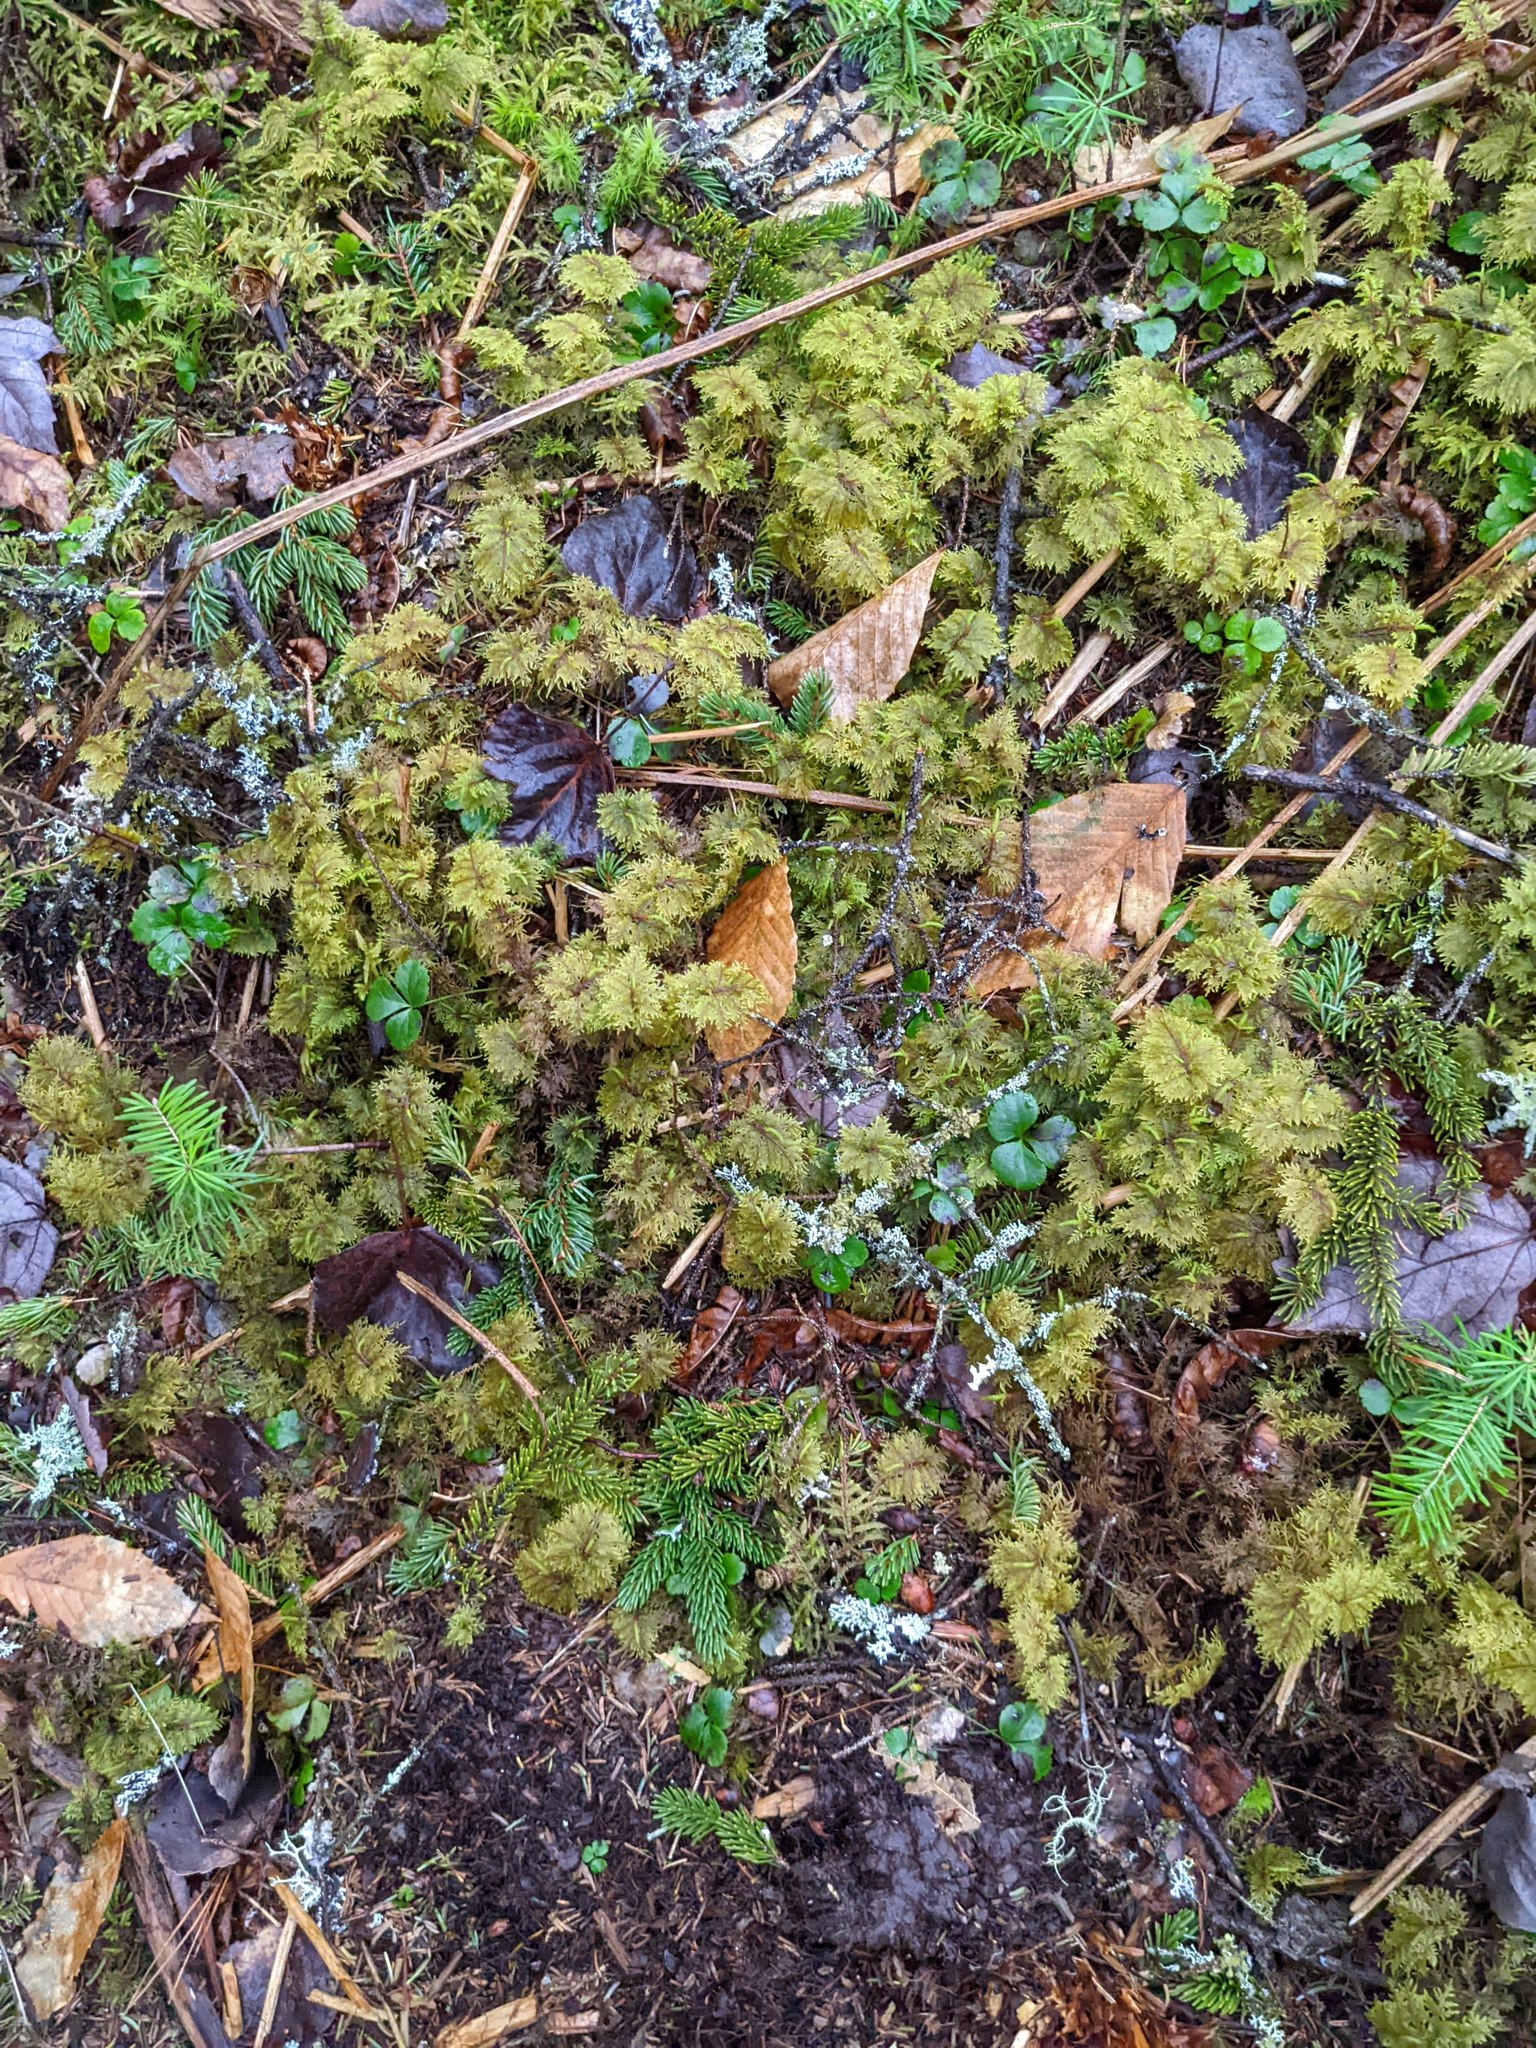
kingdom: Plantae
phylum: Bryophyta
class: Bryopsida
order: Hypnales
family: Hylocomiaceae
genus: Hylocomium
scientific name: Hylocomium splendens
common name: Stairstep moss
